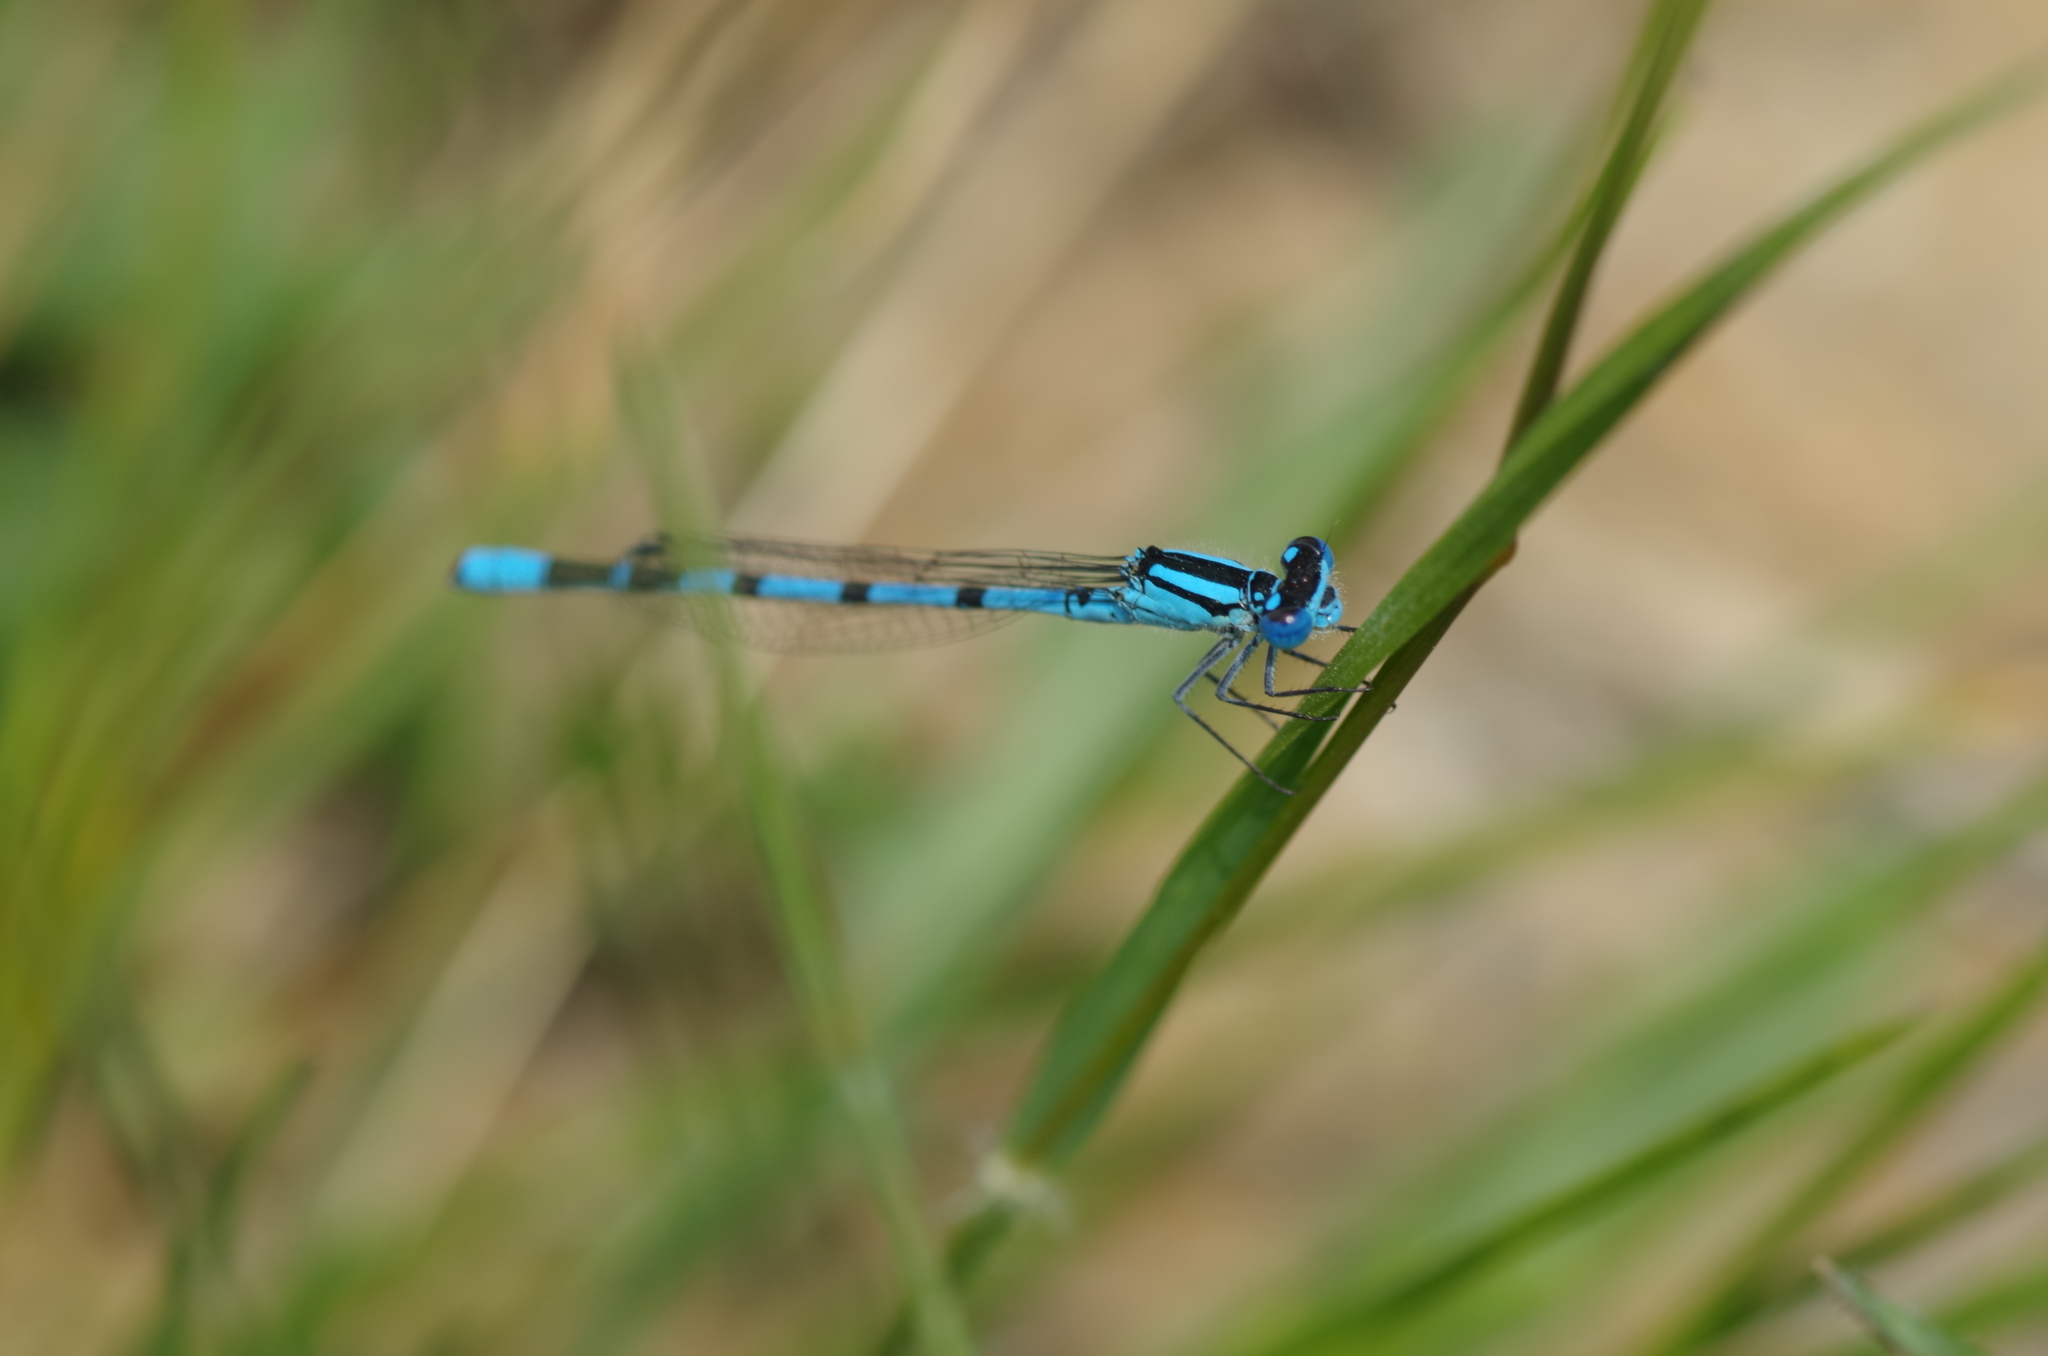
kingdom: Animalia
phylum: Arthropoda
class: Insecta
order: Odonata
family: Coenagrionidae
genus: Enallagma
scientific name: Enallagma cyathigerum
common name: Common blue damselfly
